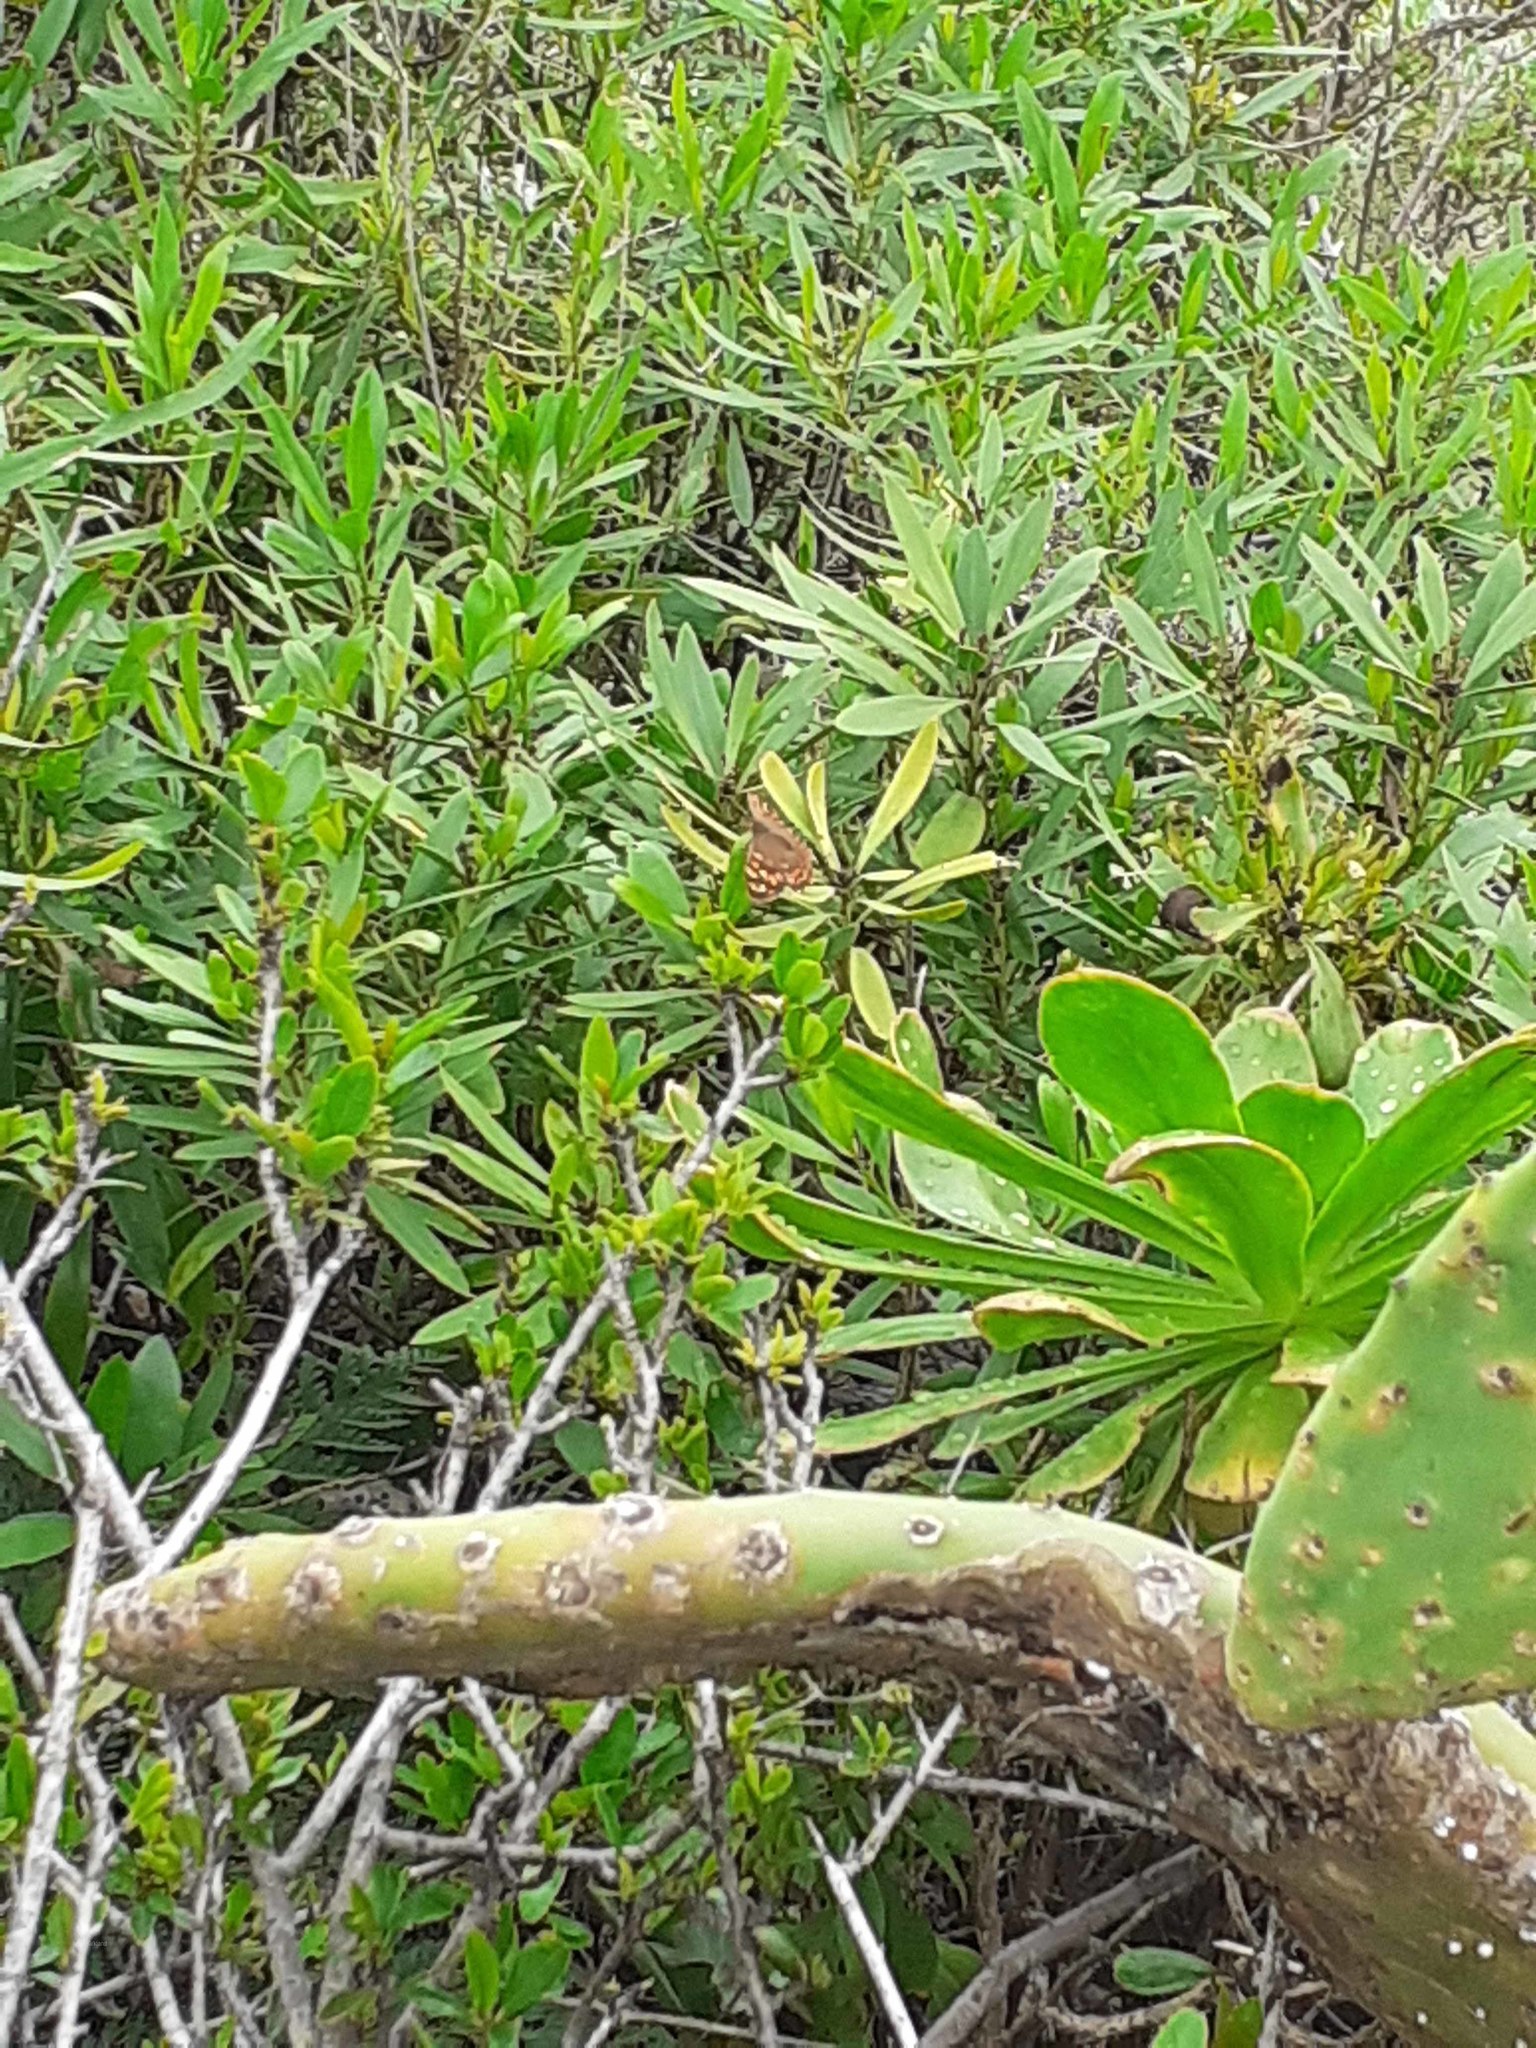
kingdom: Animalia
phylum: Arthropoda
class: Insecta
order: Lepidoptera
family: Nymphalidae
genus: Pararge
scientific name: Pararge aegeria
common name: Speckled wood
